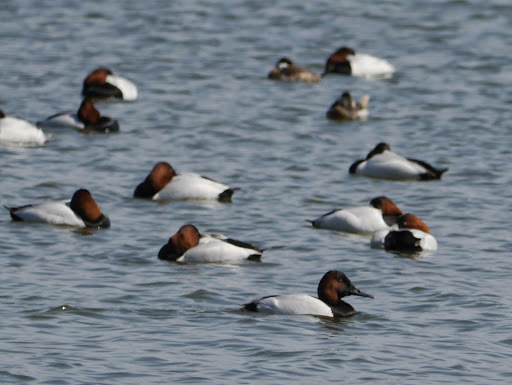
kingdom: Animalia
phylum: Chordata
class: Aves
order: Anseriformes
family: Anatidae
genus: Aythya
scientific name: Aythya valisineria
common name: Canvasback
